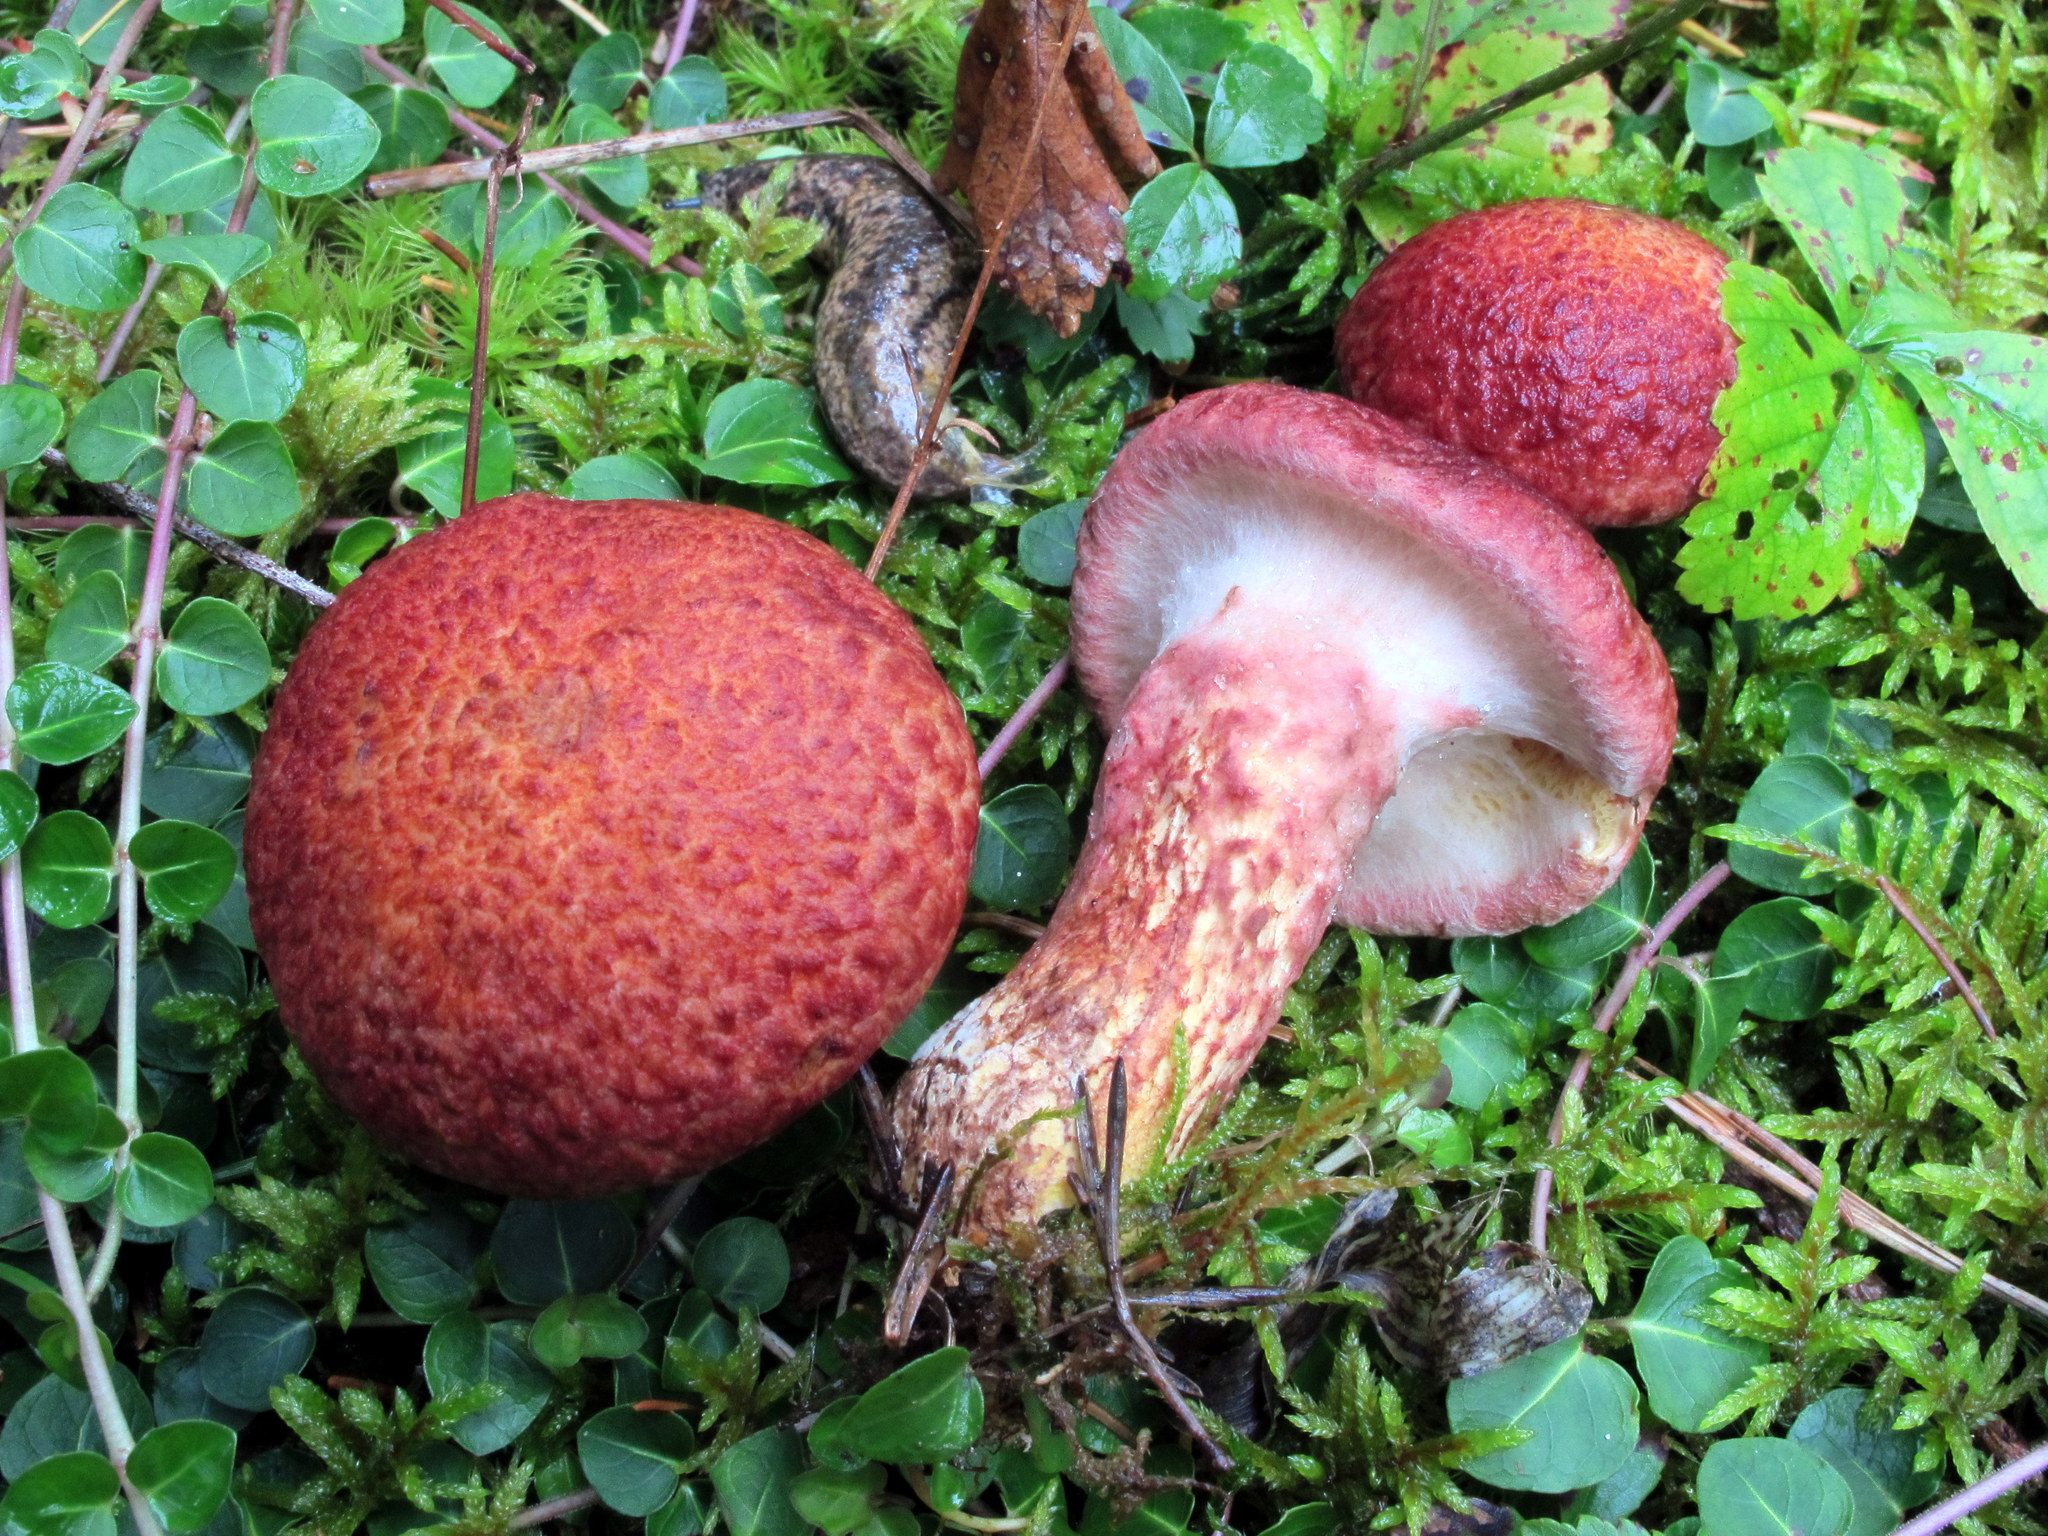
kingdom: Fungi
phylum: Basidiomycota
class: Agaricomycetes
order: Boletales
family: Suillaceae
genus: Suillus
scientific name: Suillus spraguei
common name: Painted suillus
